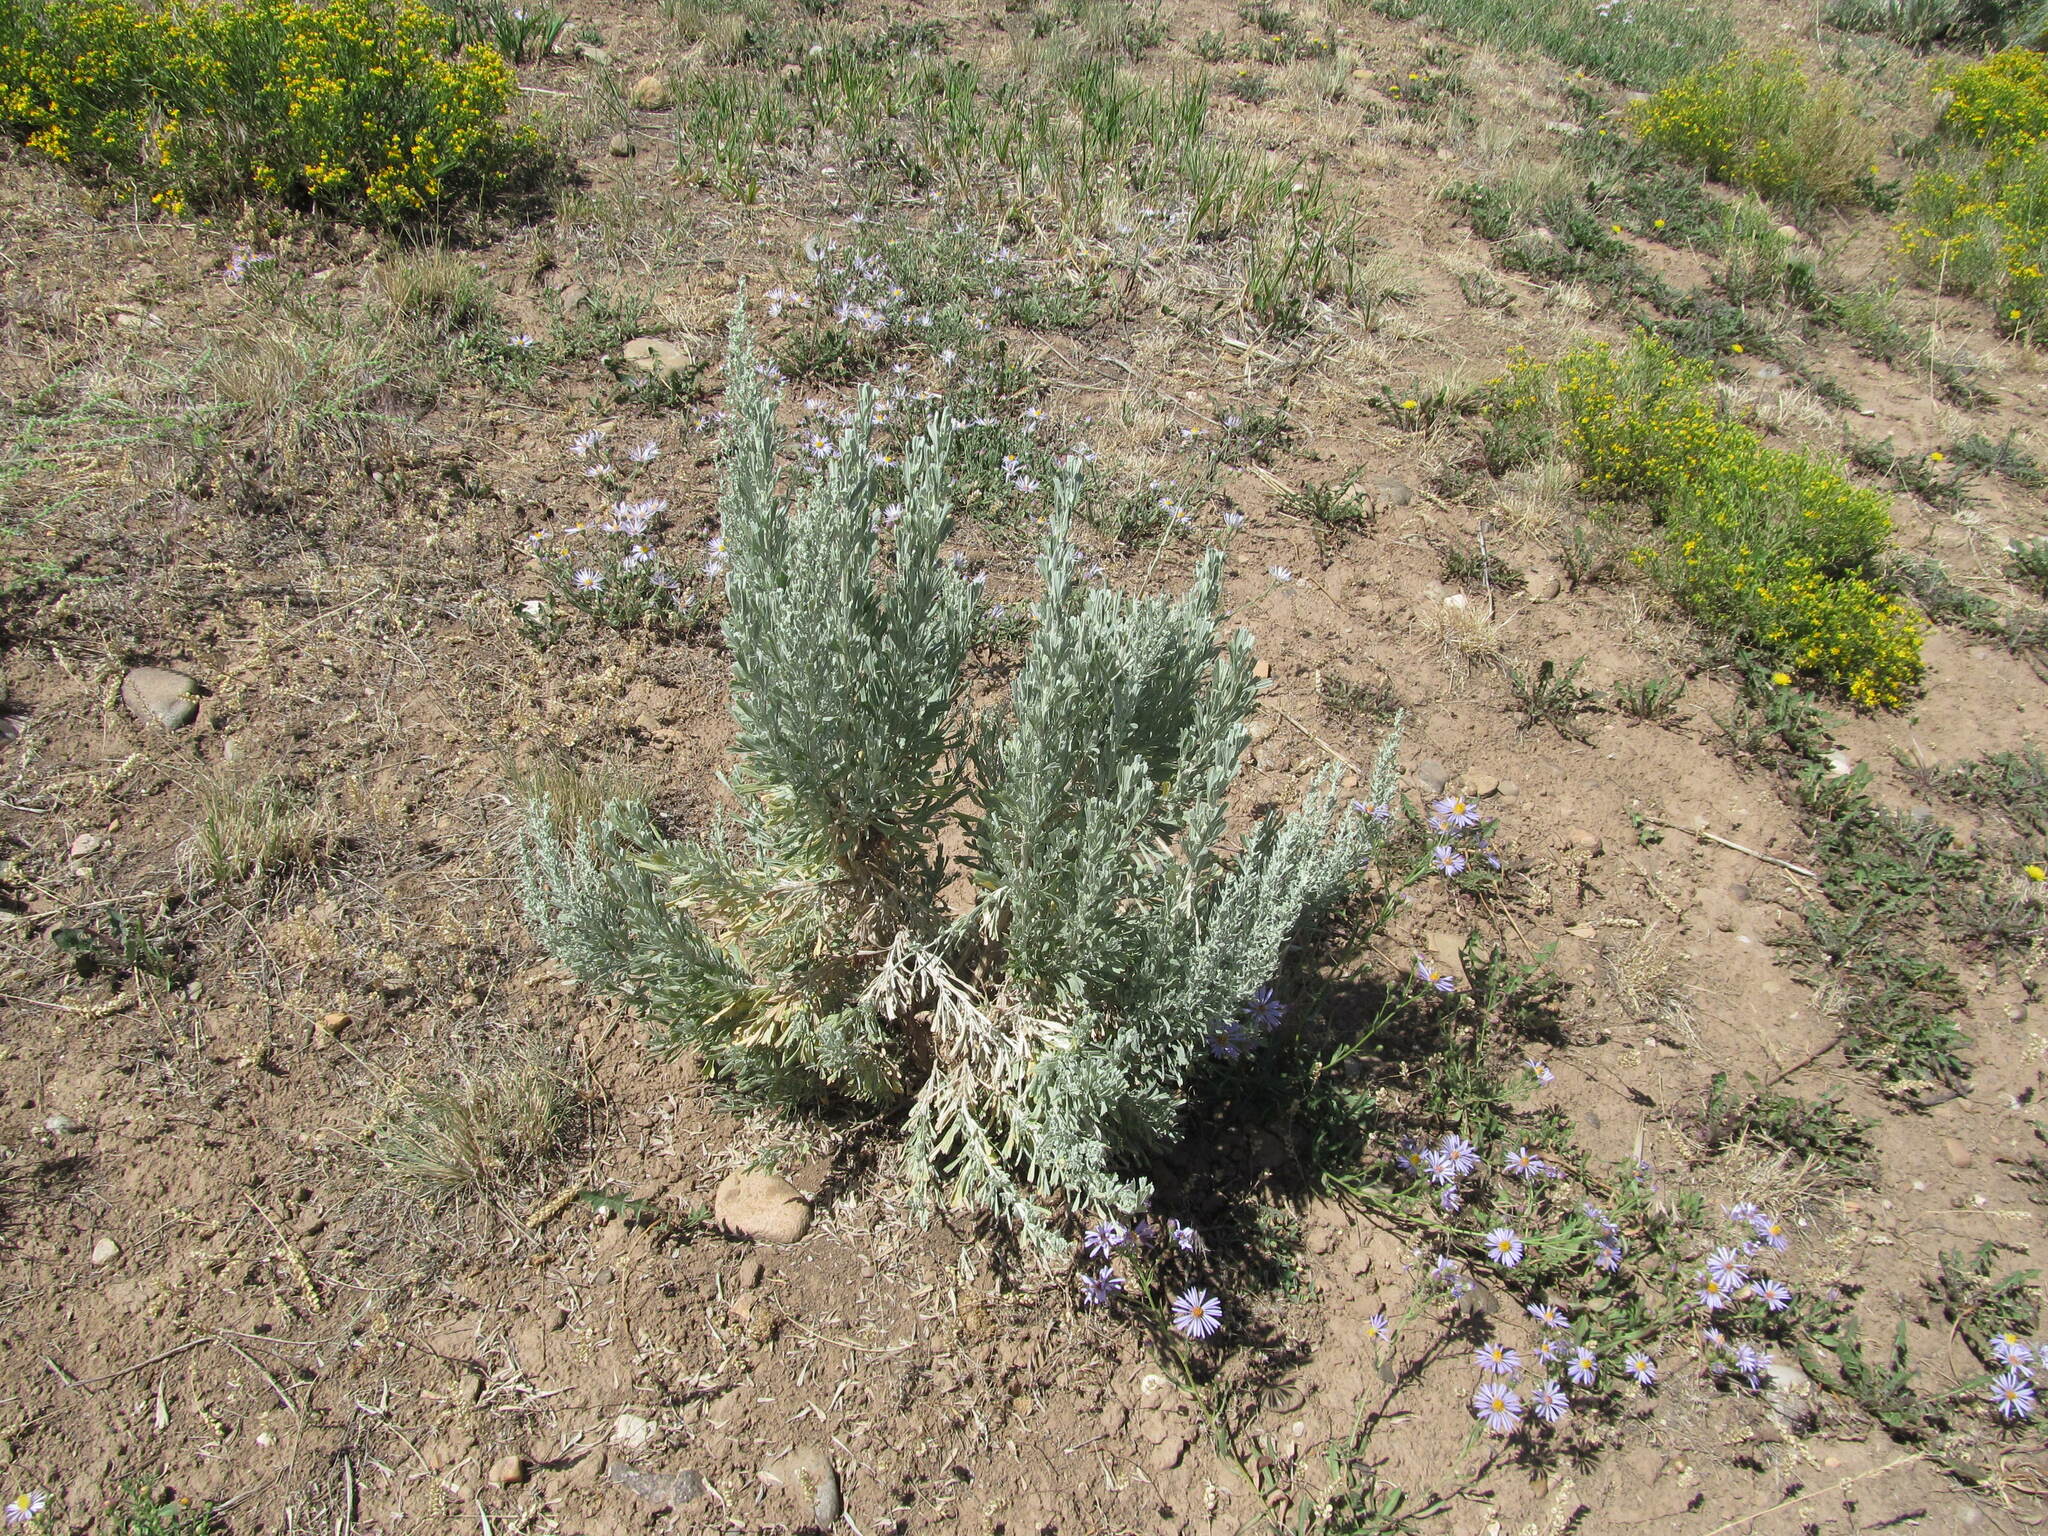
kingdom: Plantae
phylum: Tracheophyta
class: Magnoliopsida
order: Asterales
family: Asteraceae
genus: Artemisia
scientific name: Artemisia tridentata
